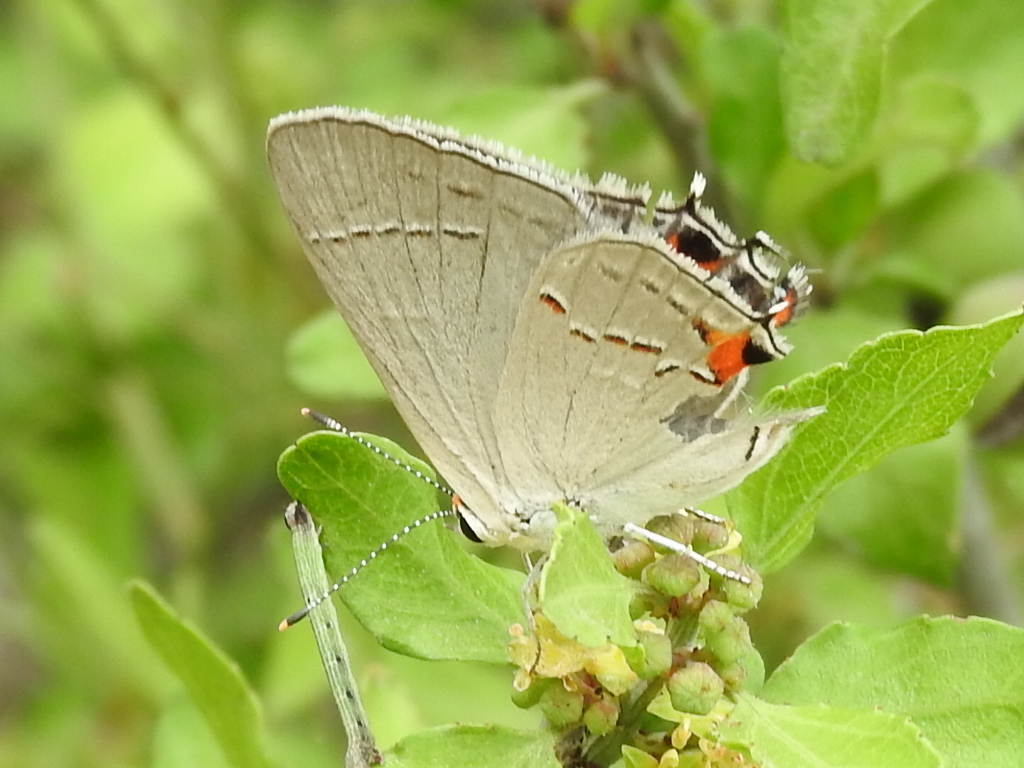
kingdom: Animalia
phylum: Arthropoda
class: Insecta
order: Lepidoptera
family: Lycaenidae
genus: Strymon
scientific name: Strymon melinus
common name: Gray hairstreak
